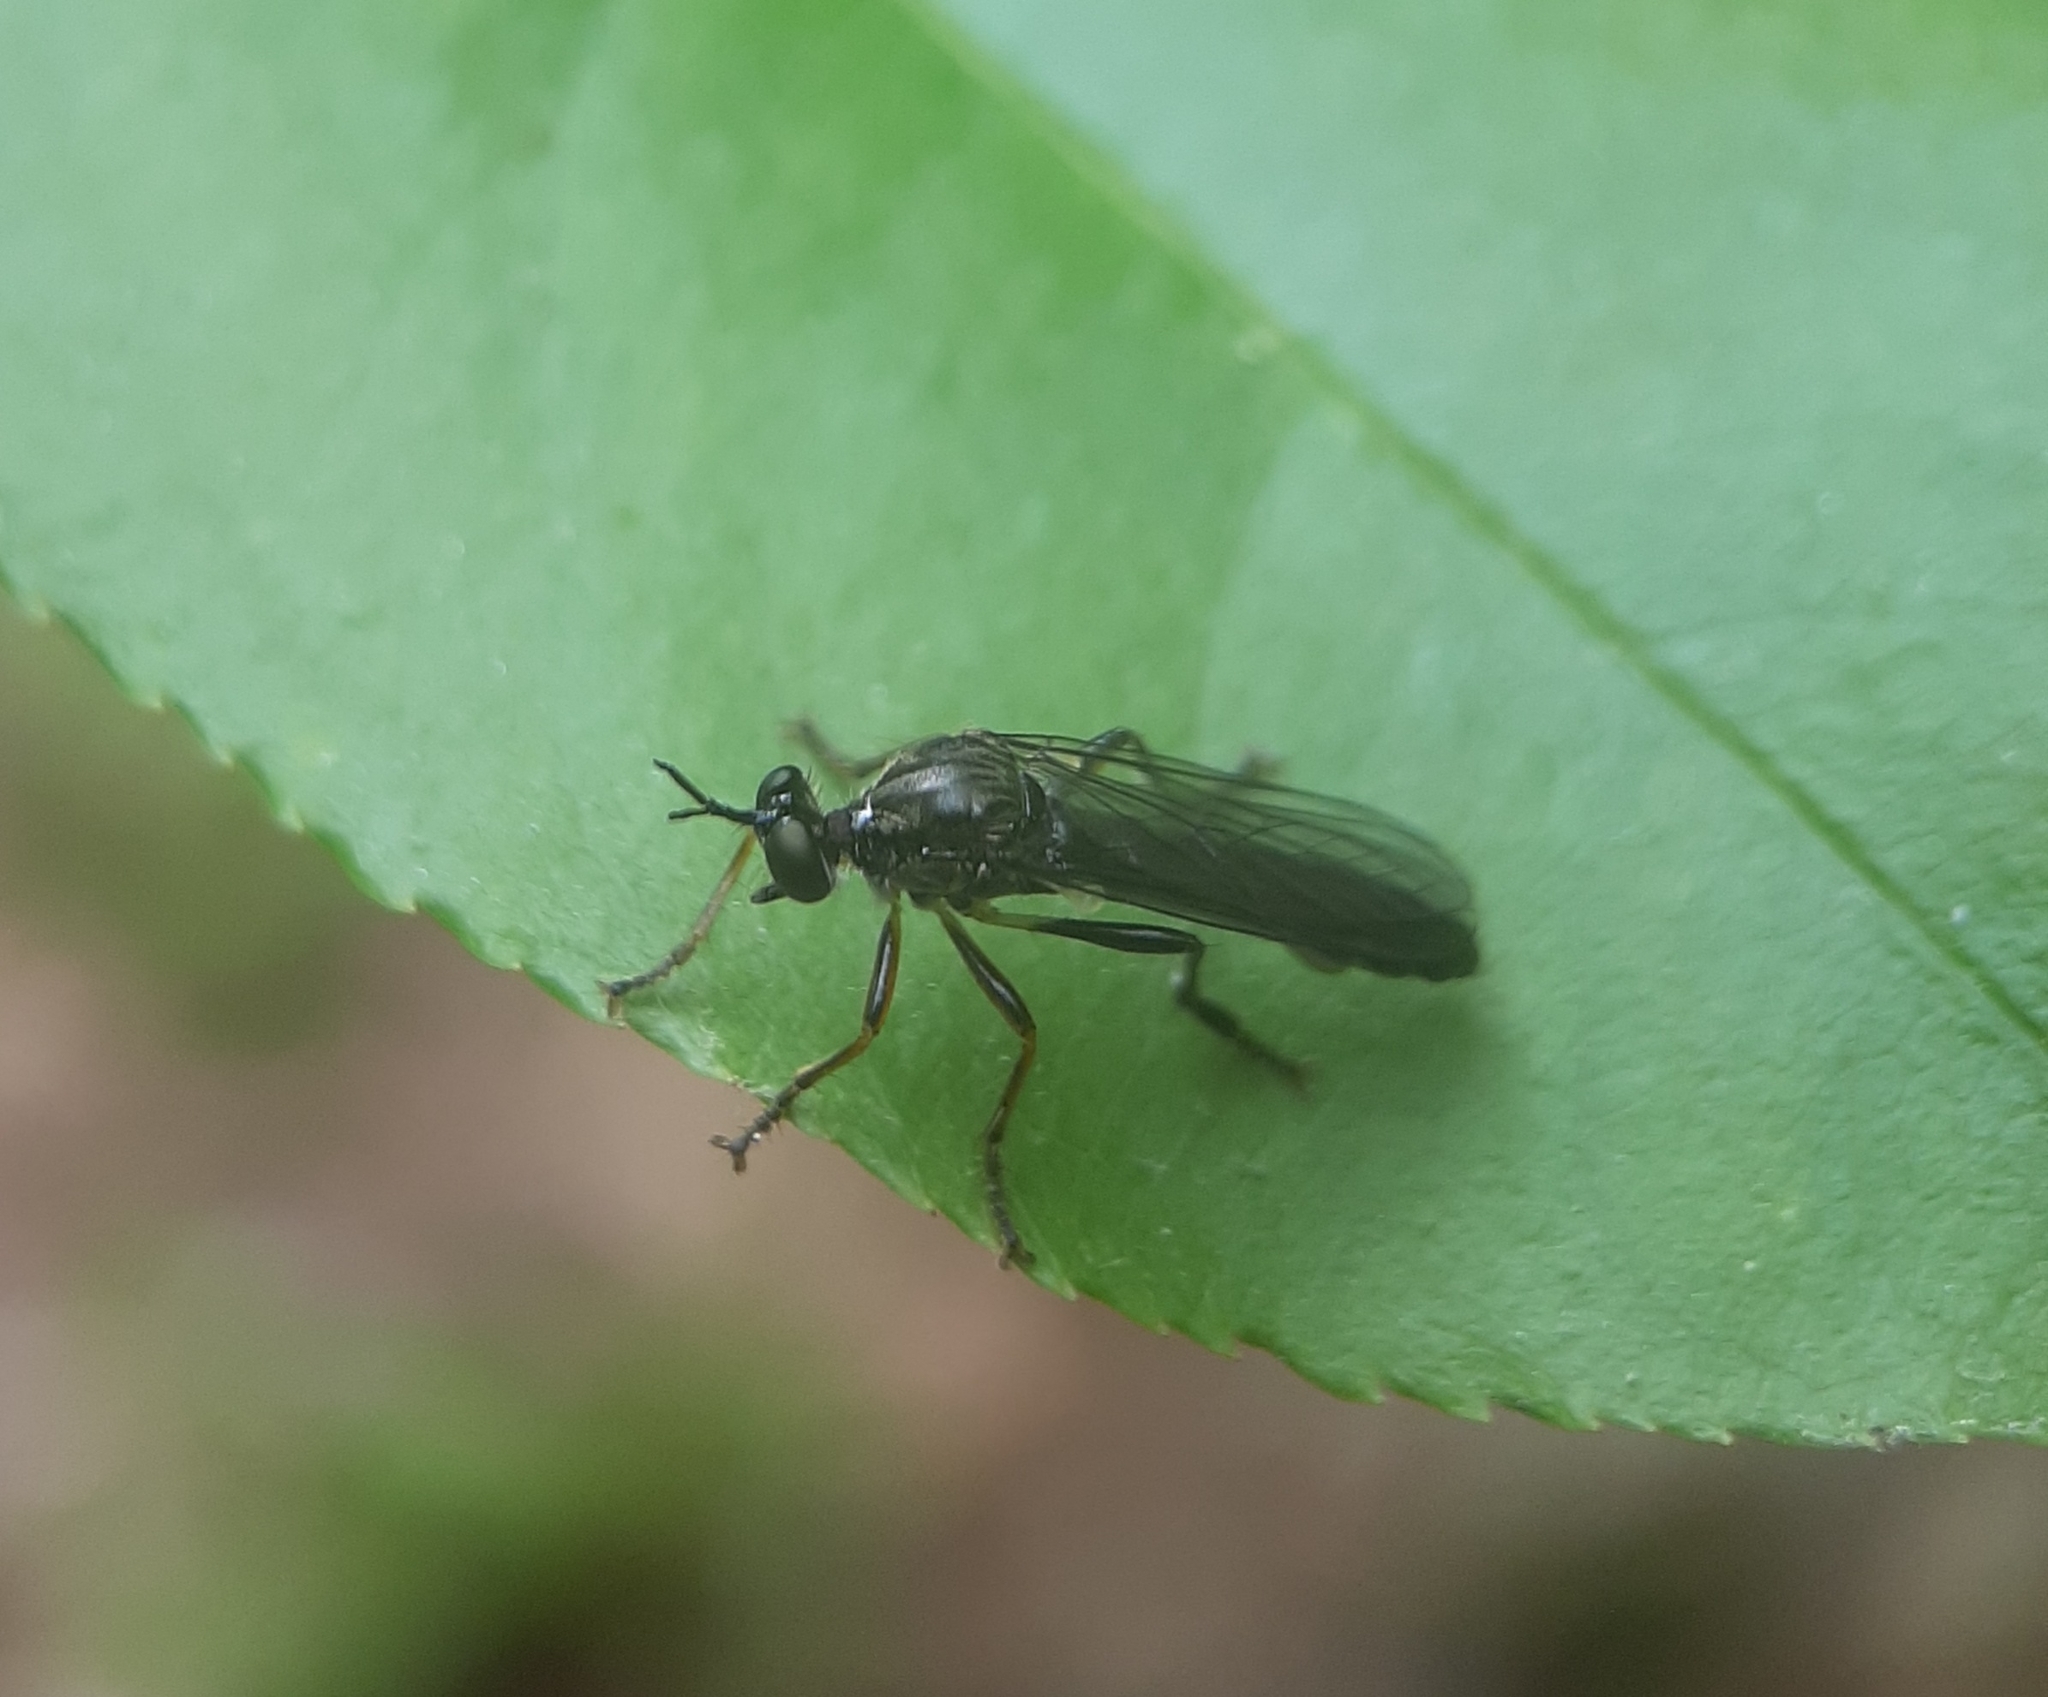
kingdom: Animalia
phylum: Arthropoda
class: Insecta
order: Diptera
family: Asilidae
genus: Dioctria
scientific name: Dioctria hyalipennis
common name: Stripe-legged robberfly
